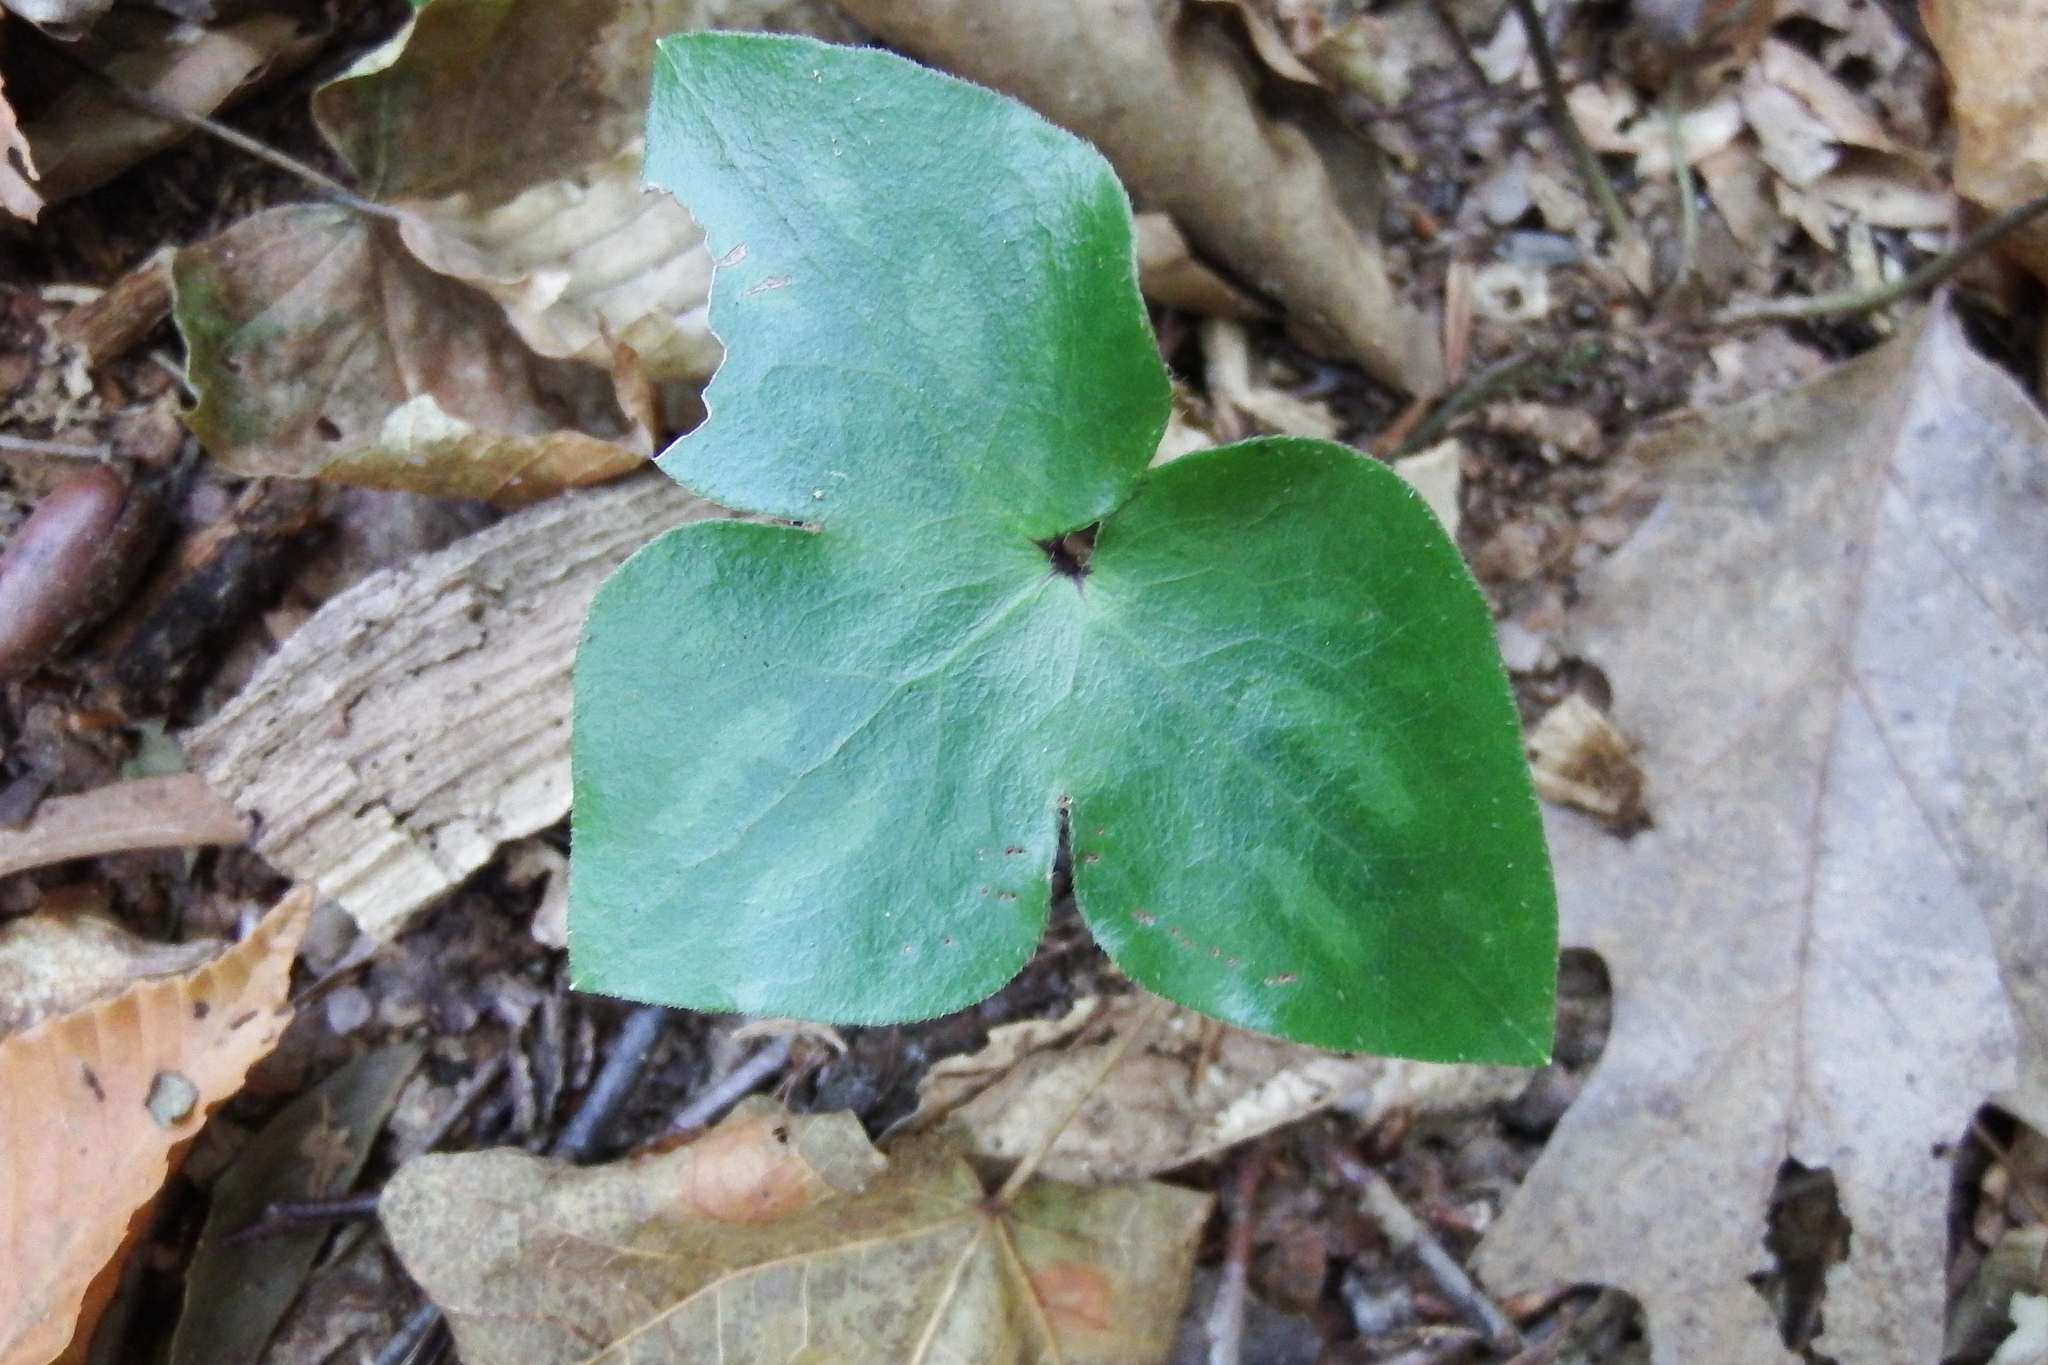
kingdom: Plantae
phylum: Tracheophyta
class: Magnoliopsida
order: Ranunculales
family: Ranunculaceae
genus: Hepatica
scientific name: Hepatica acutiloba
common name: Sharp-lobed hepatica
